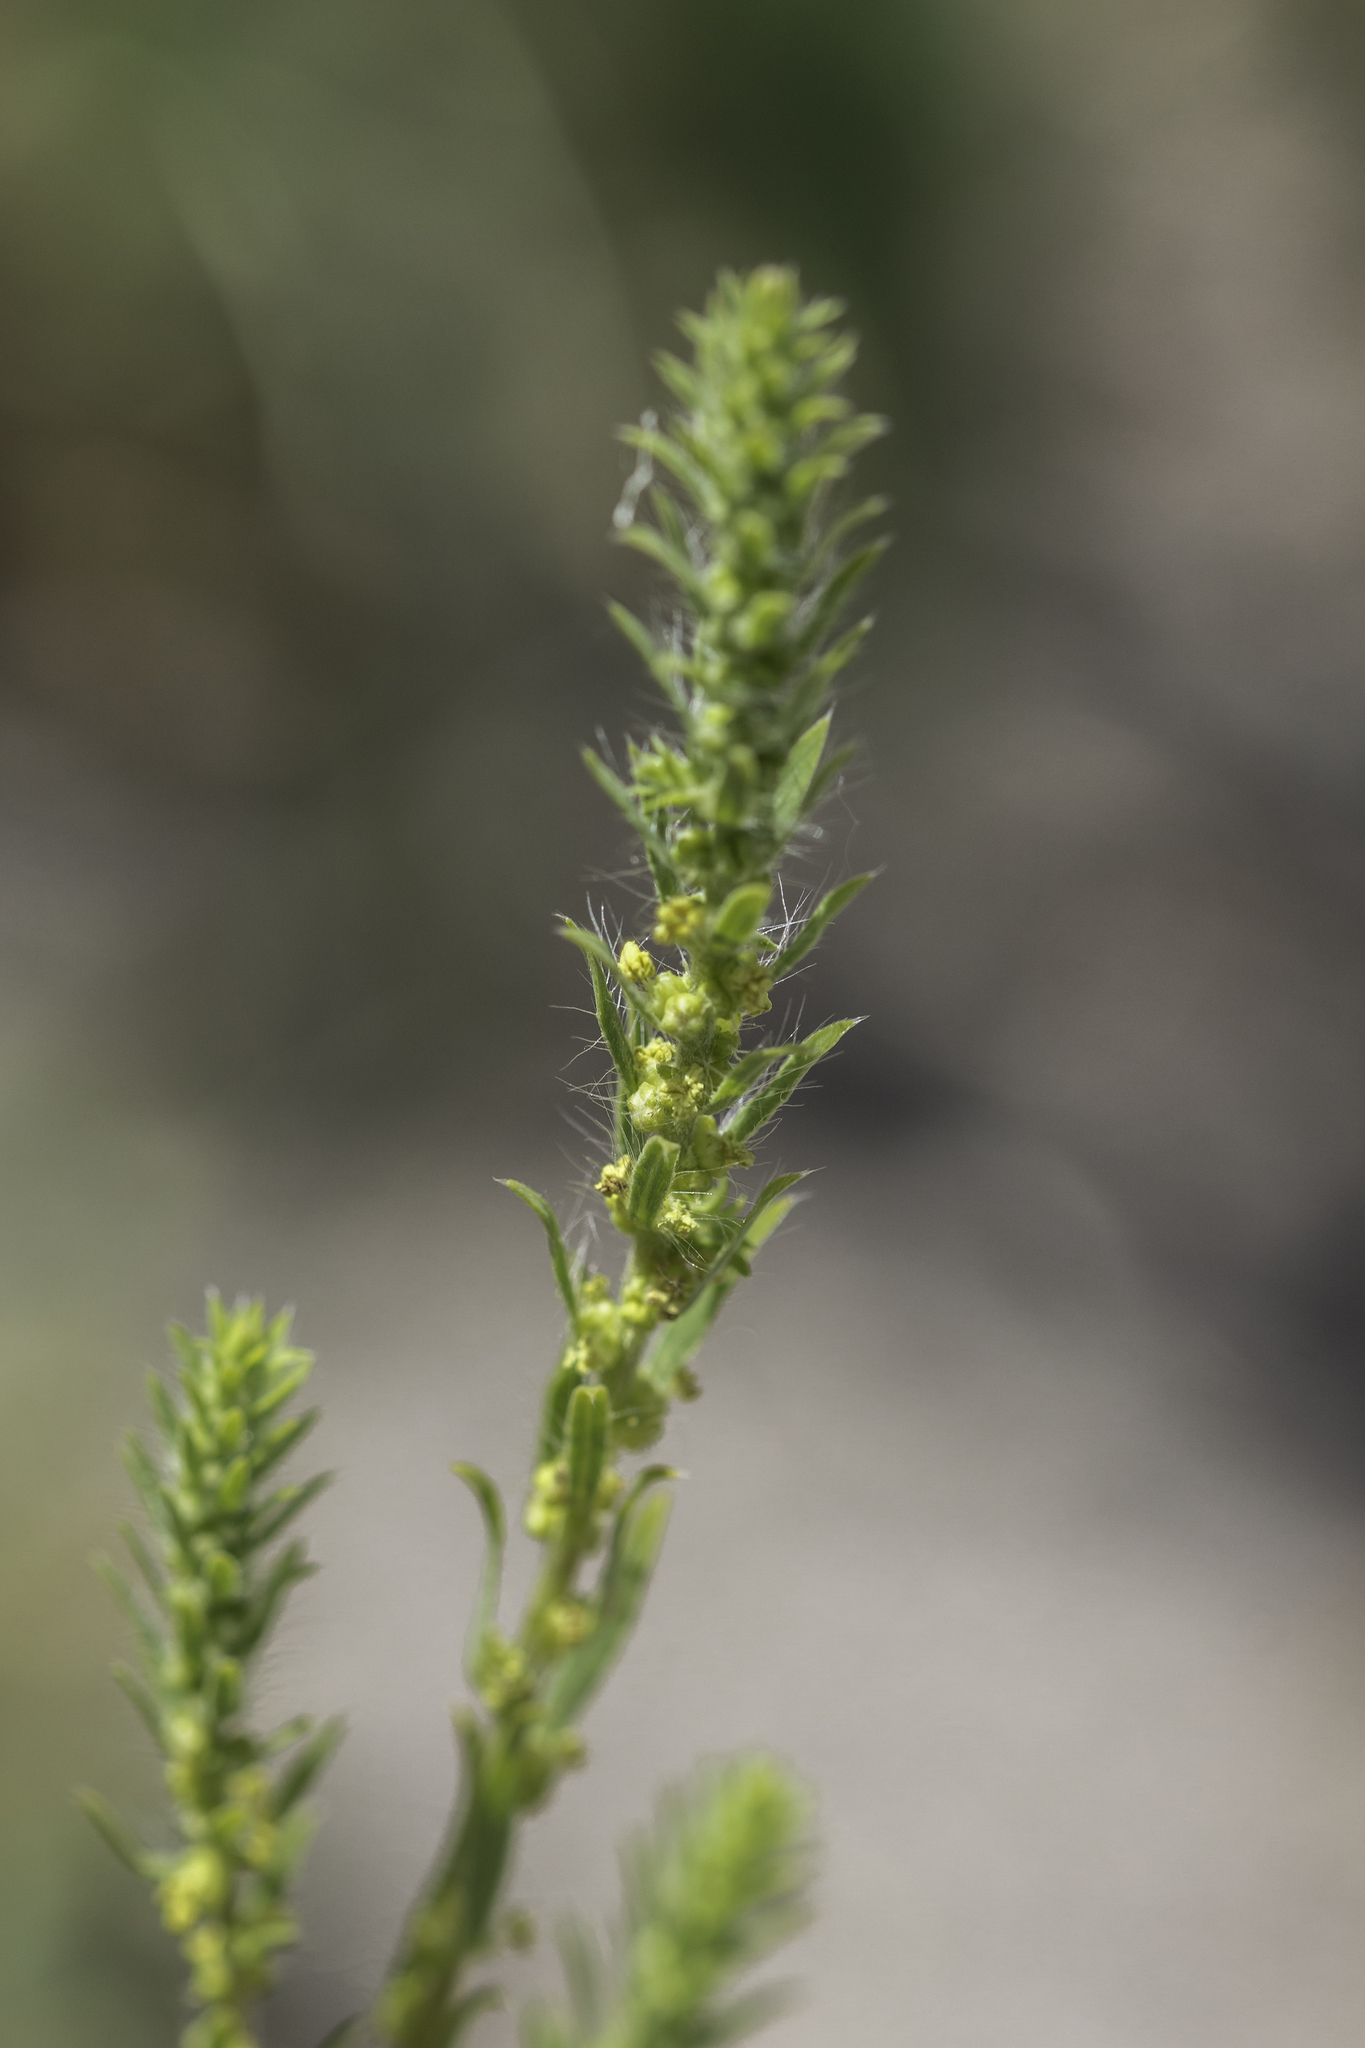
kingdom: Plantae
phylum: Tracheophyta
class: Magnoliopsida
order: Caryophyllales
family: Amaranthaceae
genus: Bassia
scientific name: Bassia scoparia
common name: Belvedere
